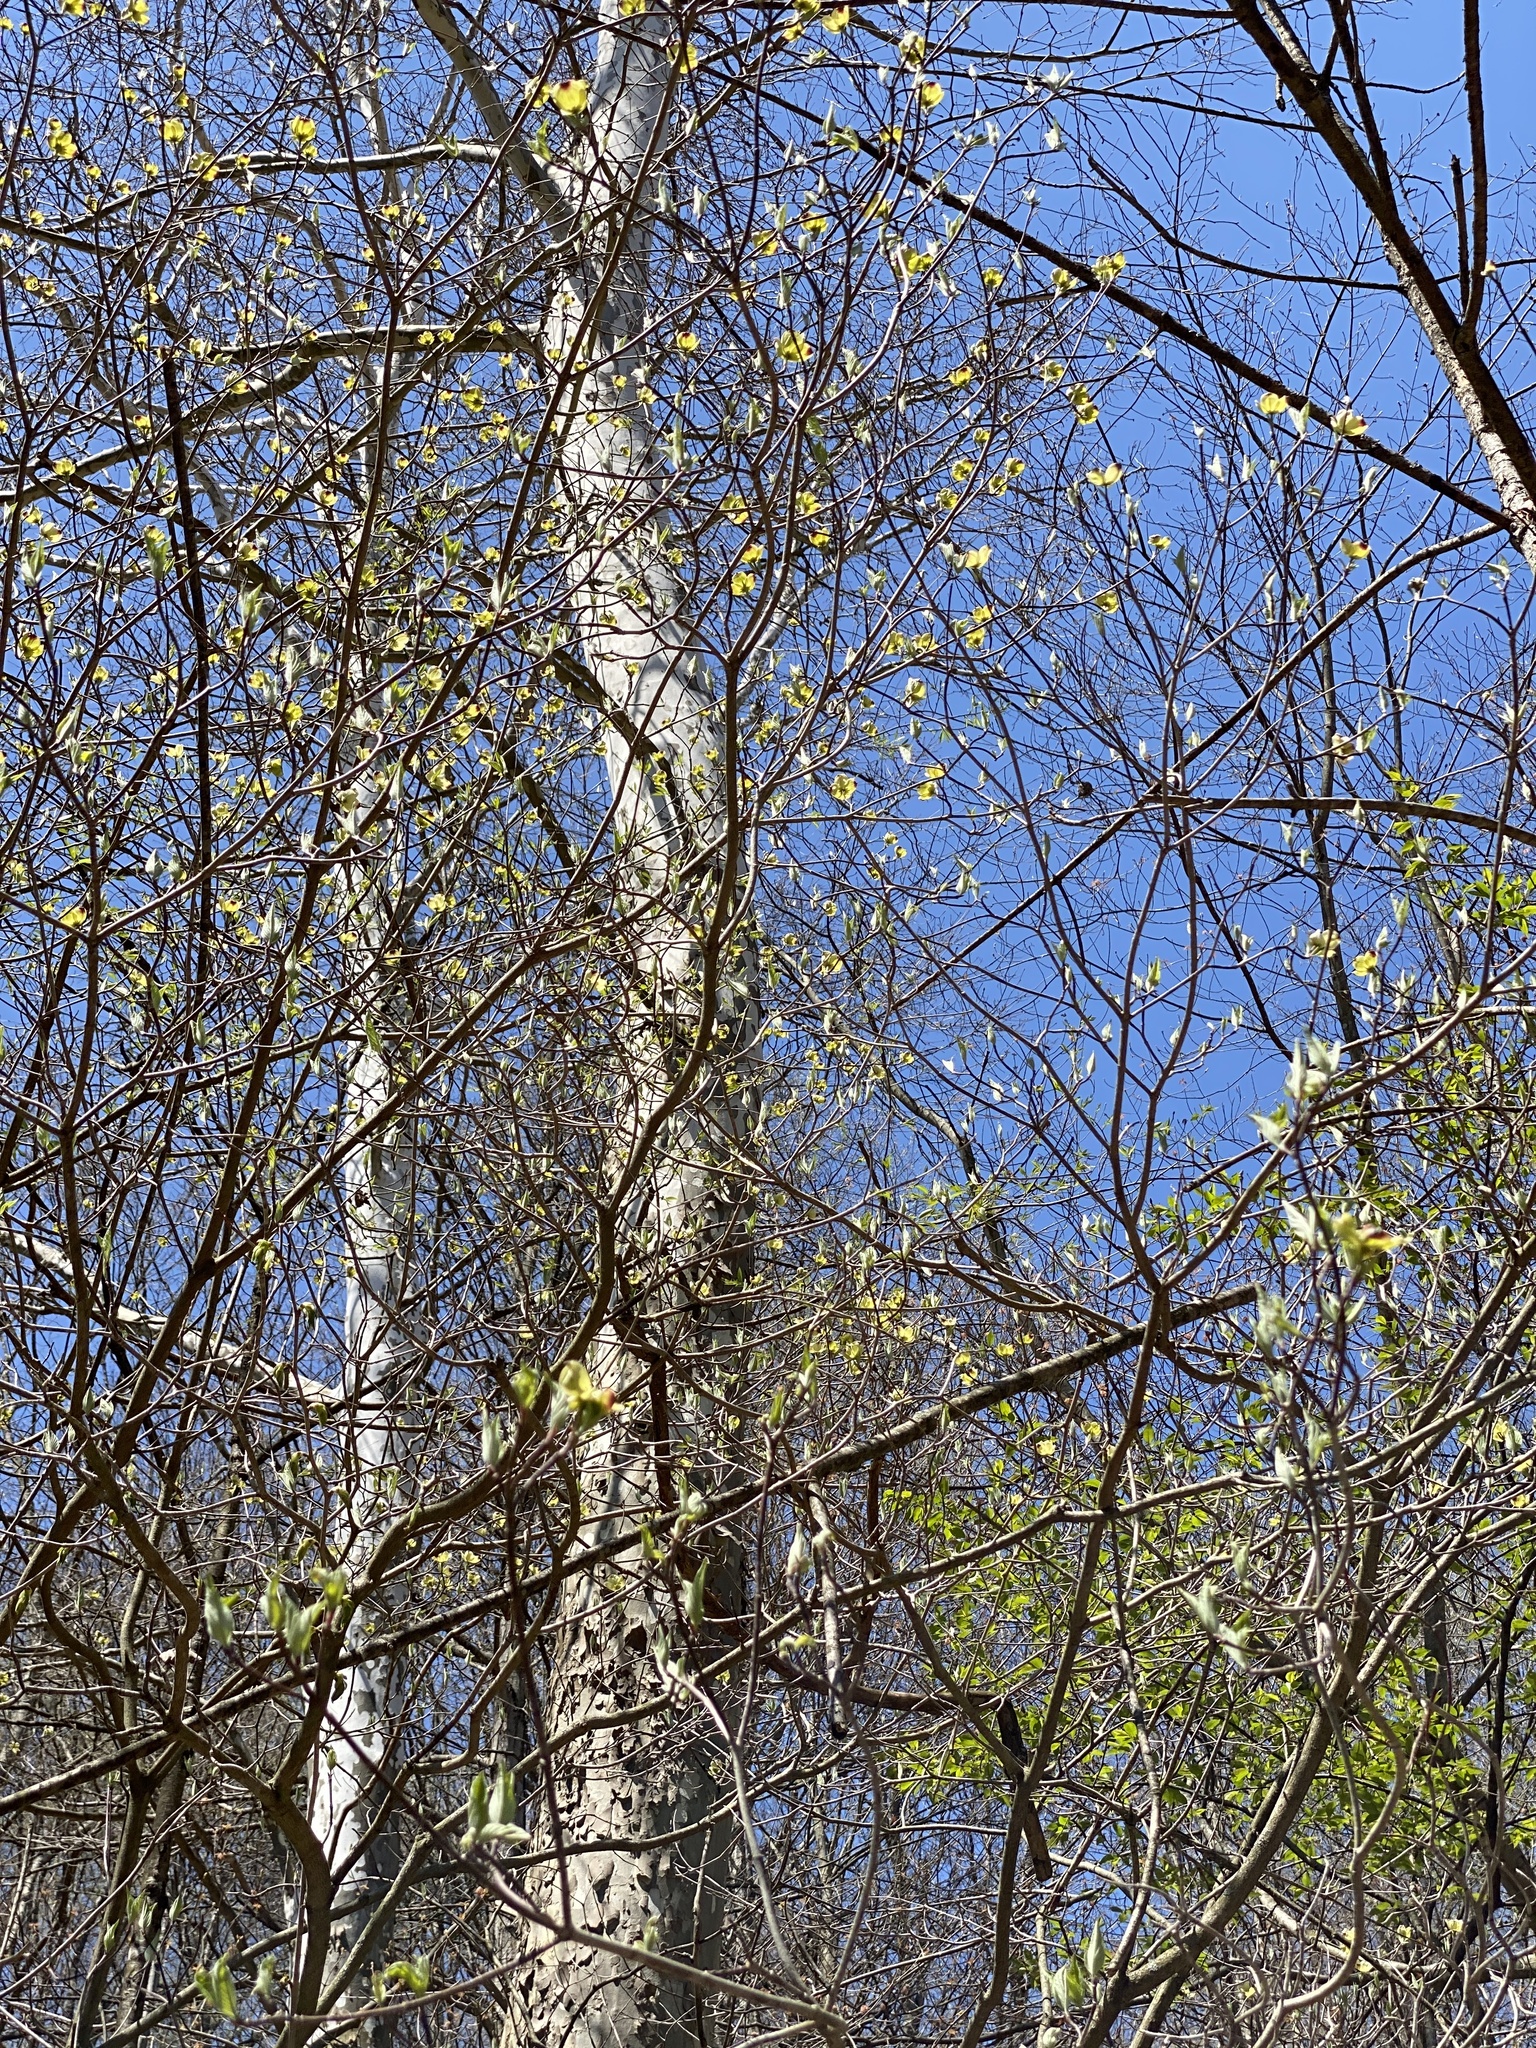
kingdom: Plantae
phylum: Tracheophyta
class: Magnoliopsida
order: Cornales
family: Cornaceae
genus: Cornus
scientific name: Cornus florida
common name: Flowering dogwood
